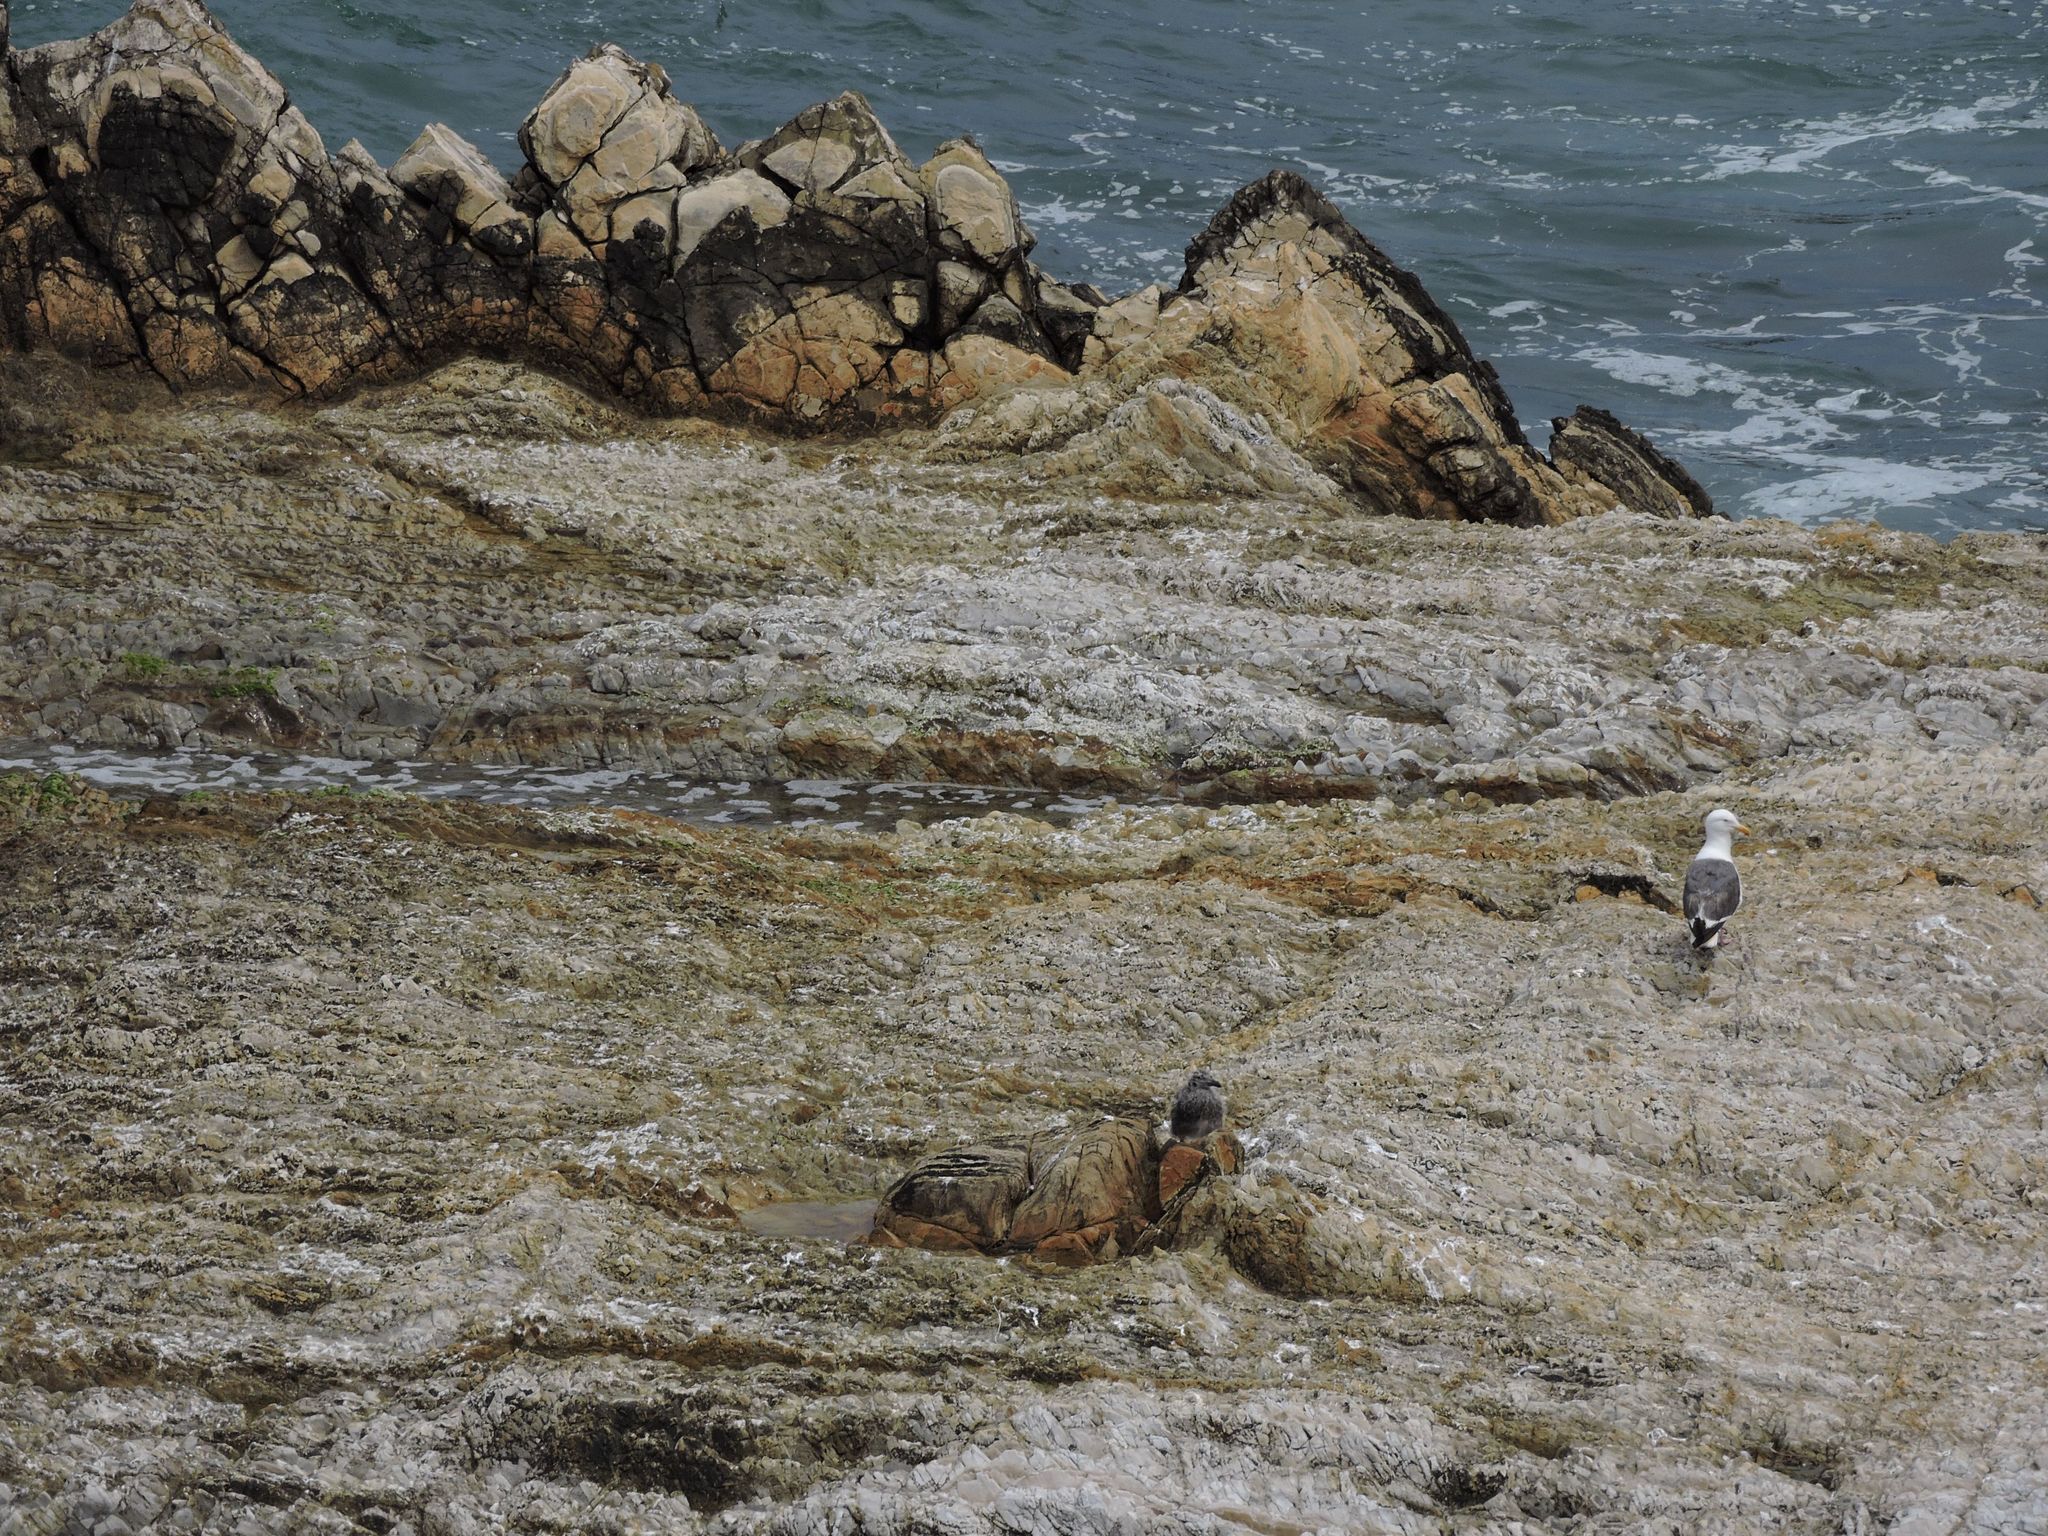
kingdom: Animalia
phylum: Chordata
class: Aves
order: Charadriiformes
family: Laridae
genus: Larus
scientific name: Larus occidentalis
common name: Western gull
